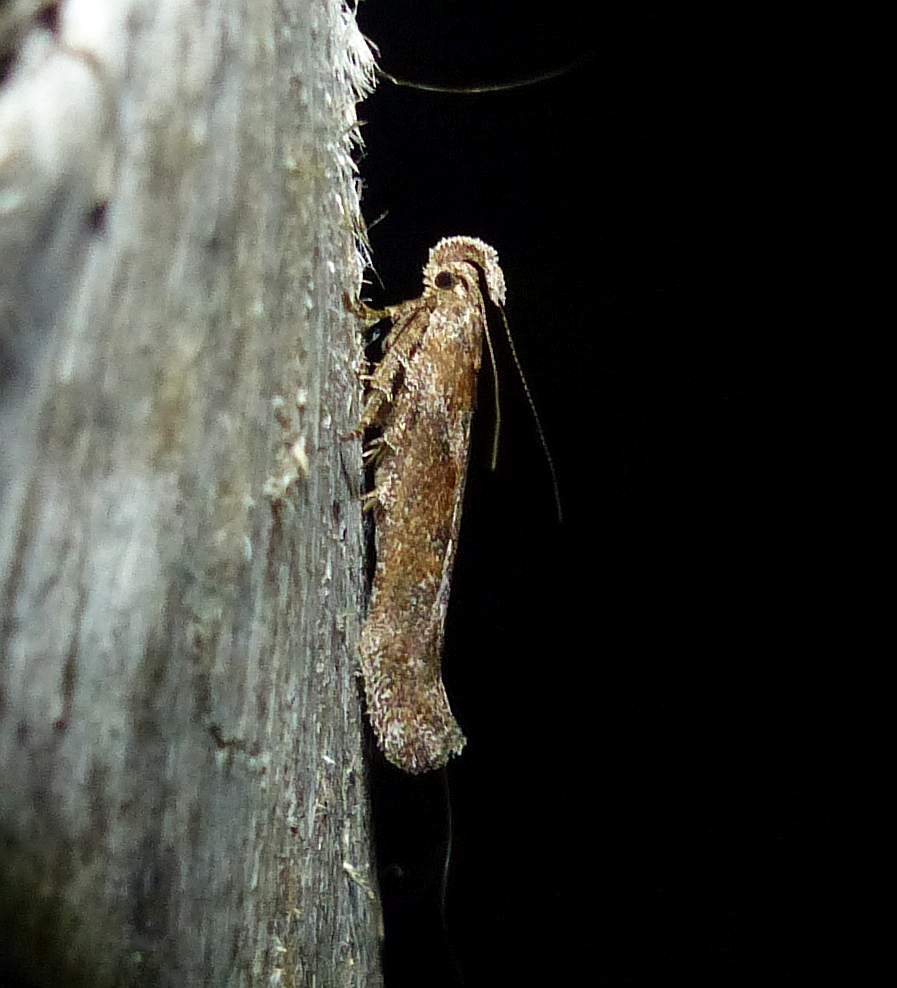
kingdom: Animalia
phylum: Arthropoda
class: Insecta
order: Lepidoptera
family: Gelechiidae
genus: Gnorimoschema
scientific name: Gnorimoschema gallaesolidaginis
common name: Goldenrod elliptical-gall moth
